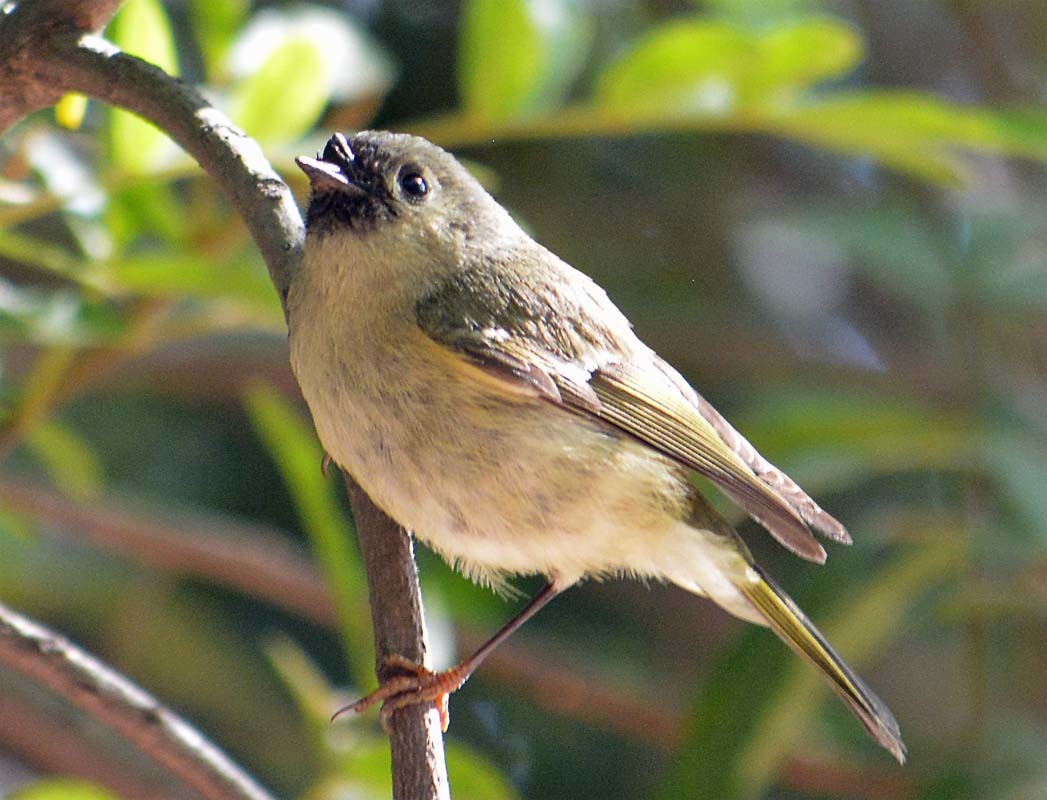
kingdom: Animalia
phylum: Chordata
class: Aves
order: Passeriformes
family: Regulidae
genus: Regulus
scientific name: Regulus calendula
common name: Ruby-crowned kinglet
